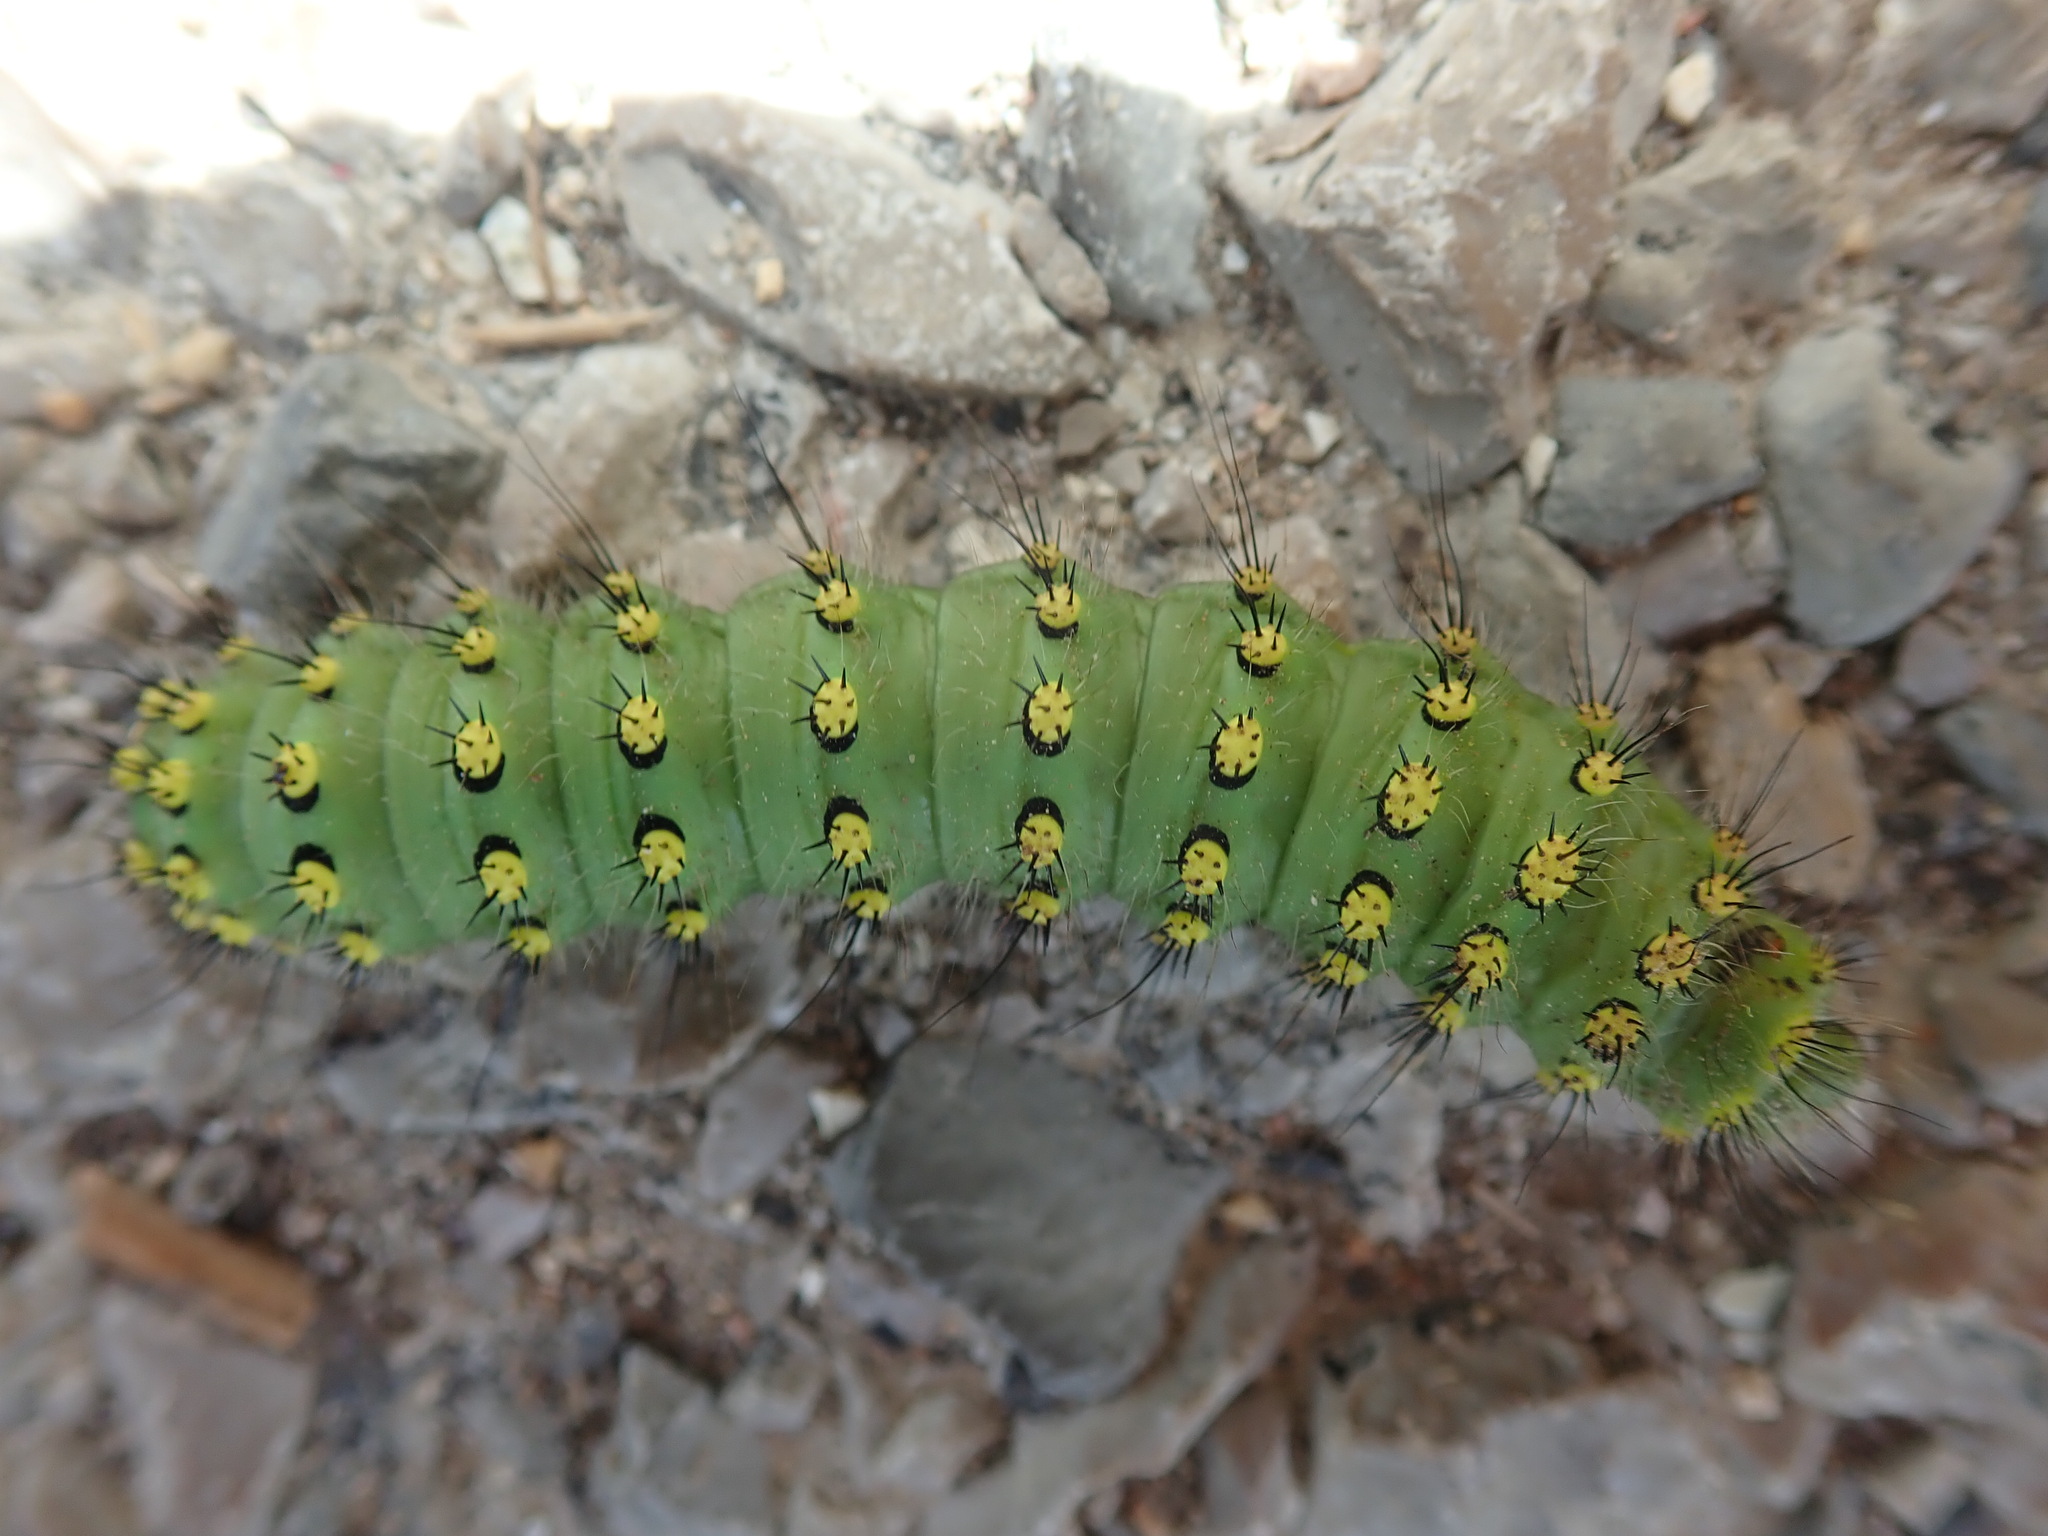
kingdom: Animalia
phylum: Arthropoda
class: Insecta
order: Lepidoptera
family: Saturniidae
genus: Saturnia
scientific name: Saturnia pavonia
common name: Emperor moth
